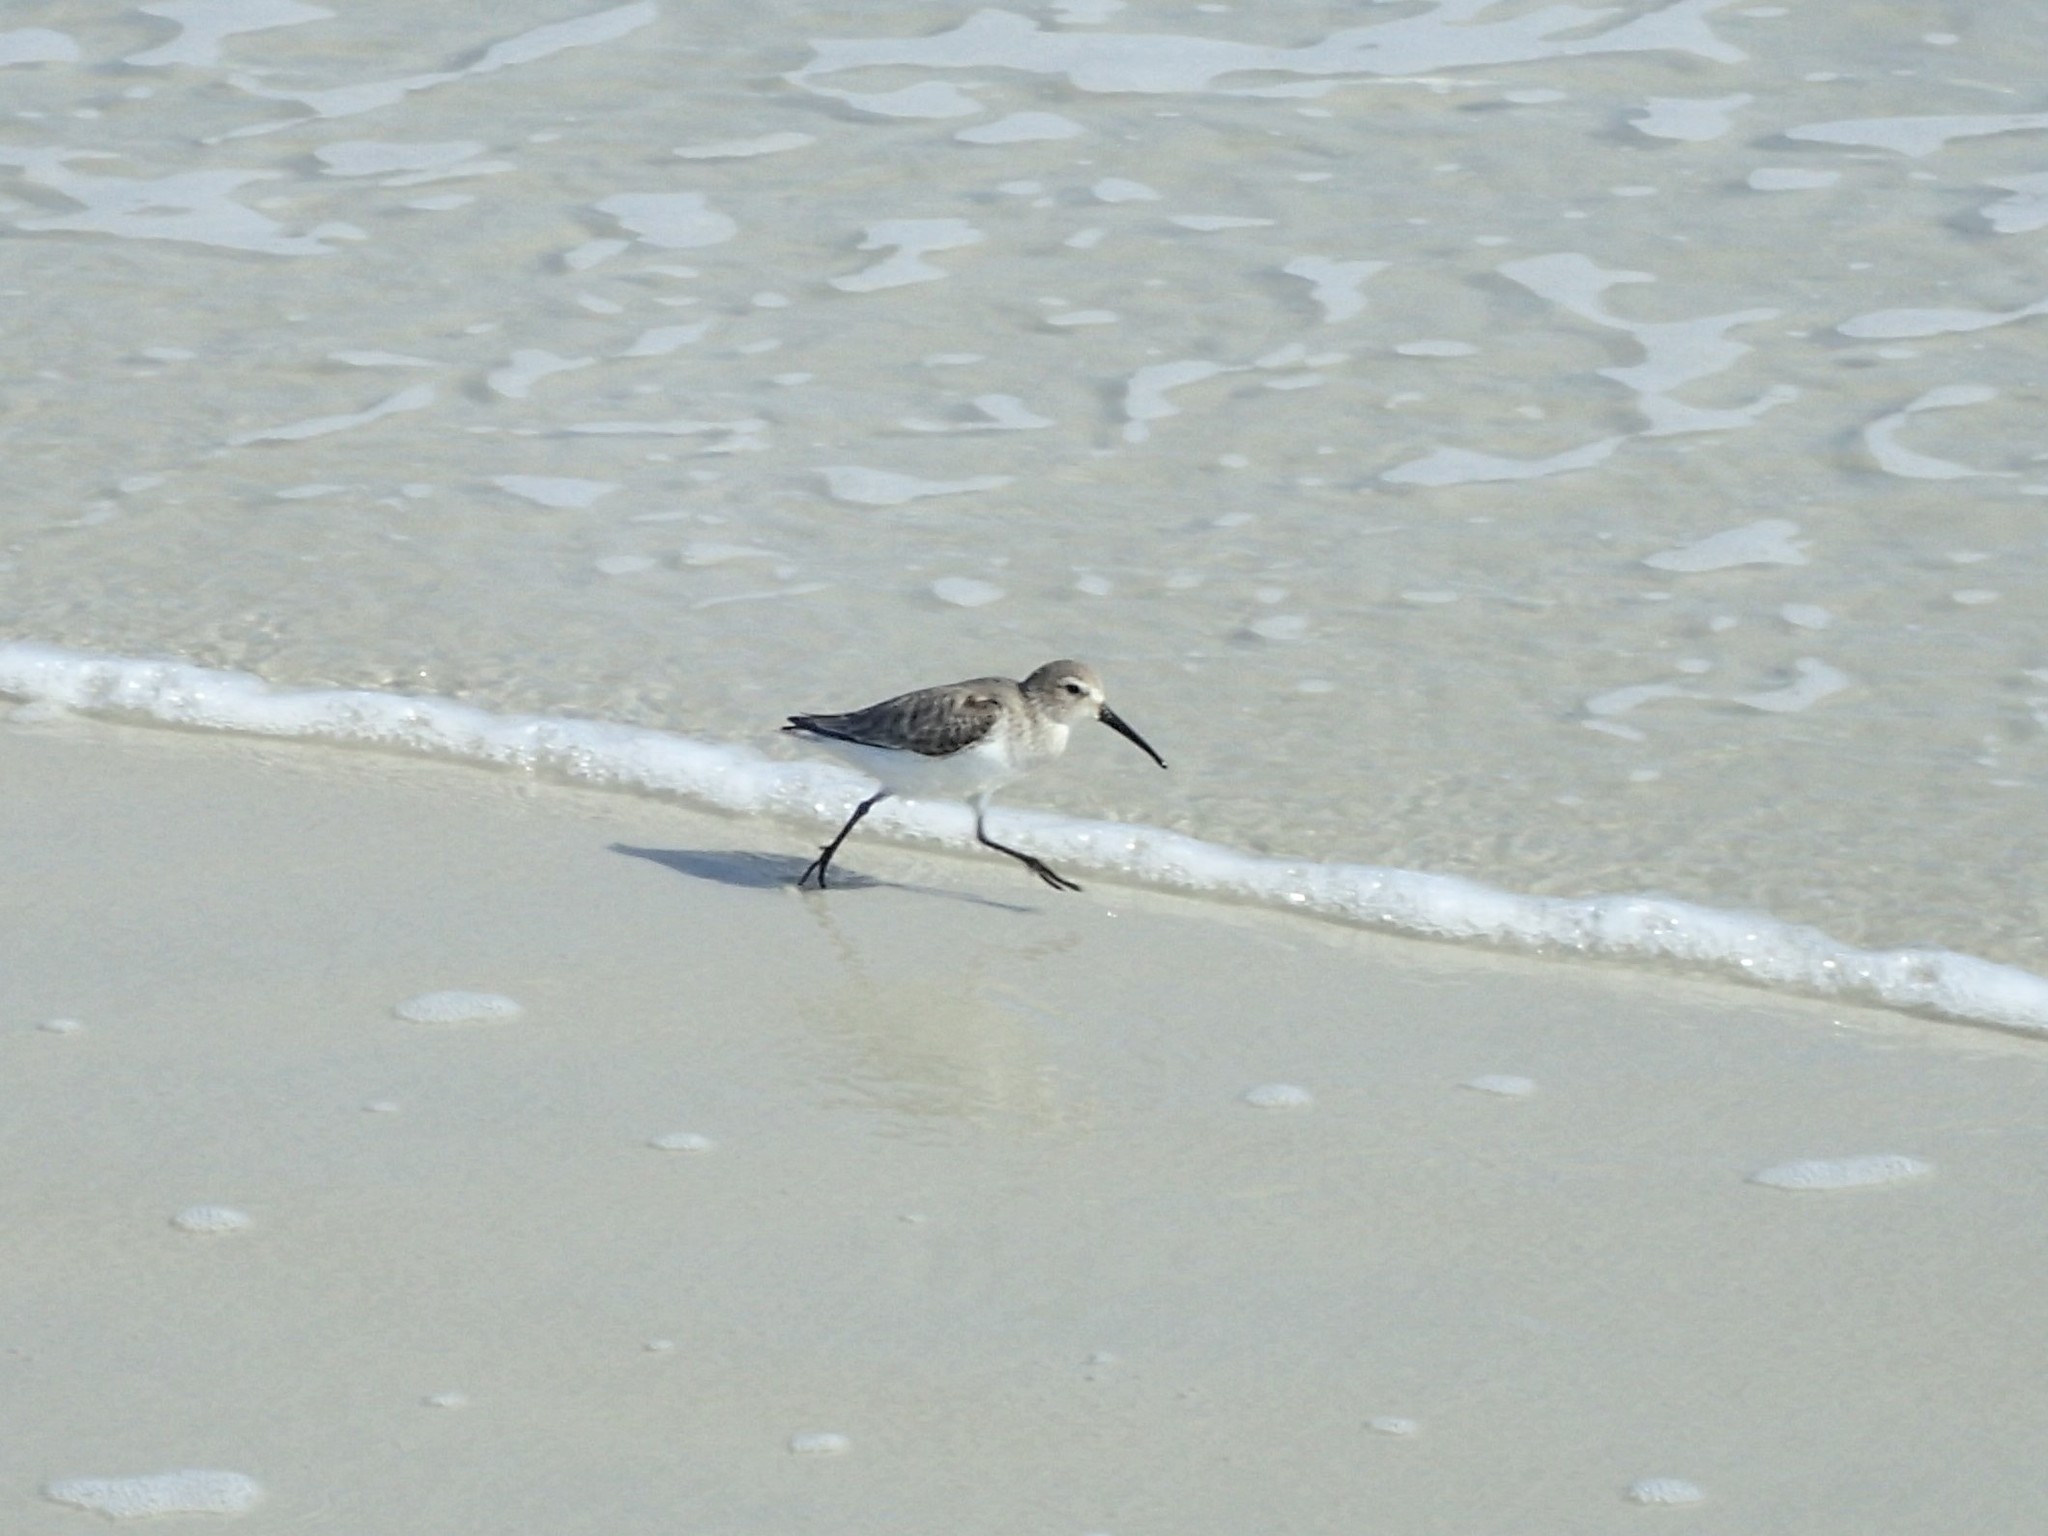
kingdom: Animalia
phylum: Chordata
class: Aves
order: Charadriiformes
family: Scolopacidae
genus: Calidris
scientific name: Calidris alpina
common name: Dunlin
